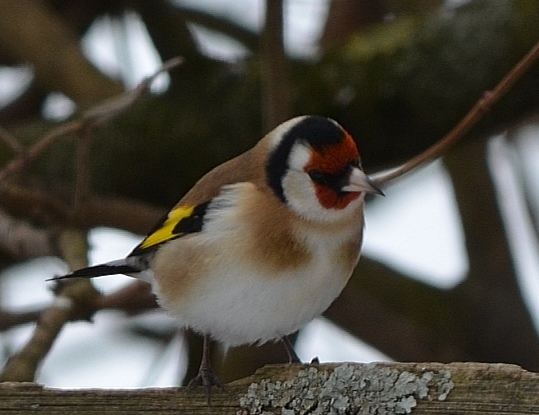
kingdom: Animalia
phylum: Chordata
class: Aves
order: Passeriformes
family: Fringillidae
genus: Carduelis
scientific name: Carduelis carduelis
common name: European goldfinch
